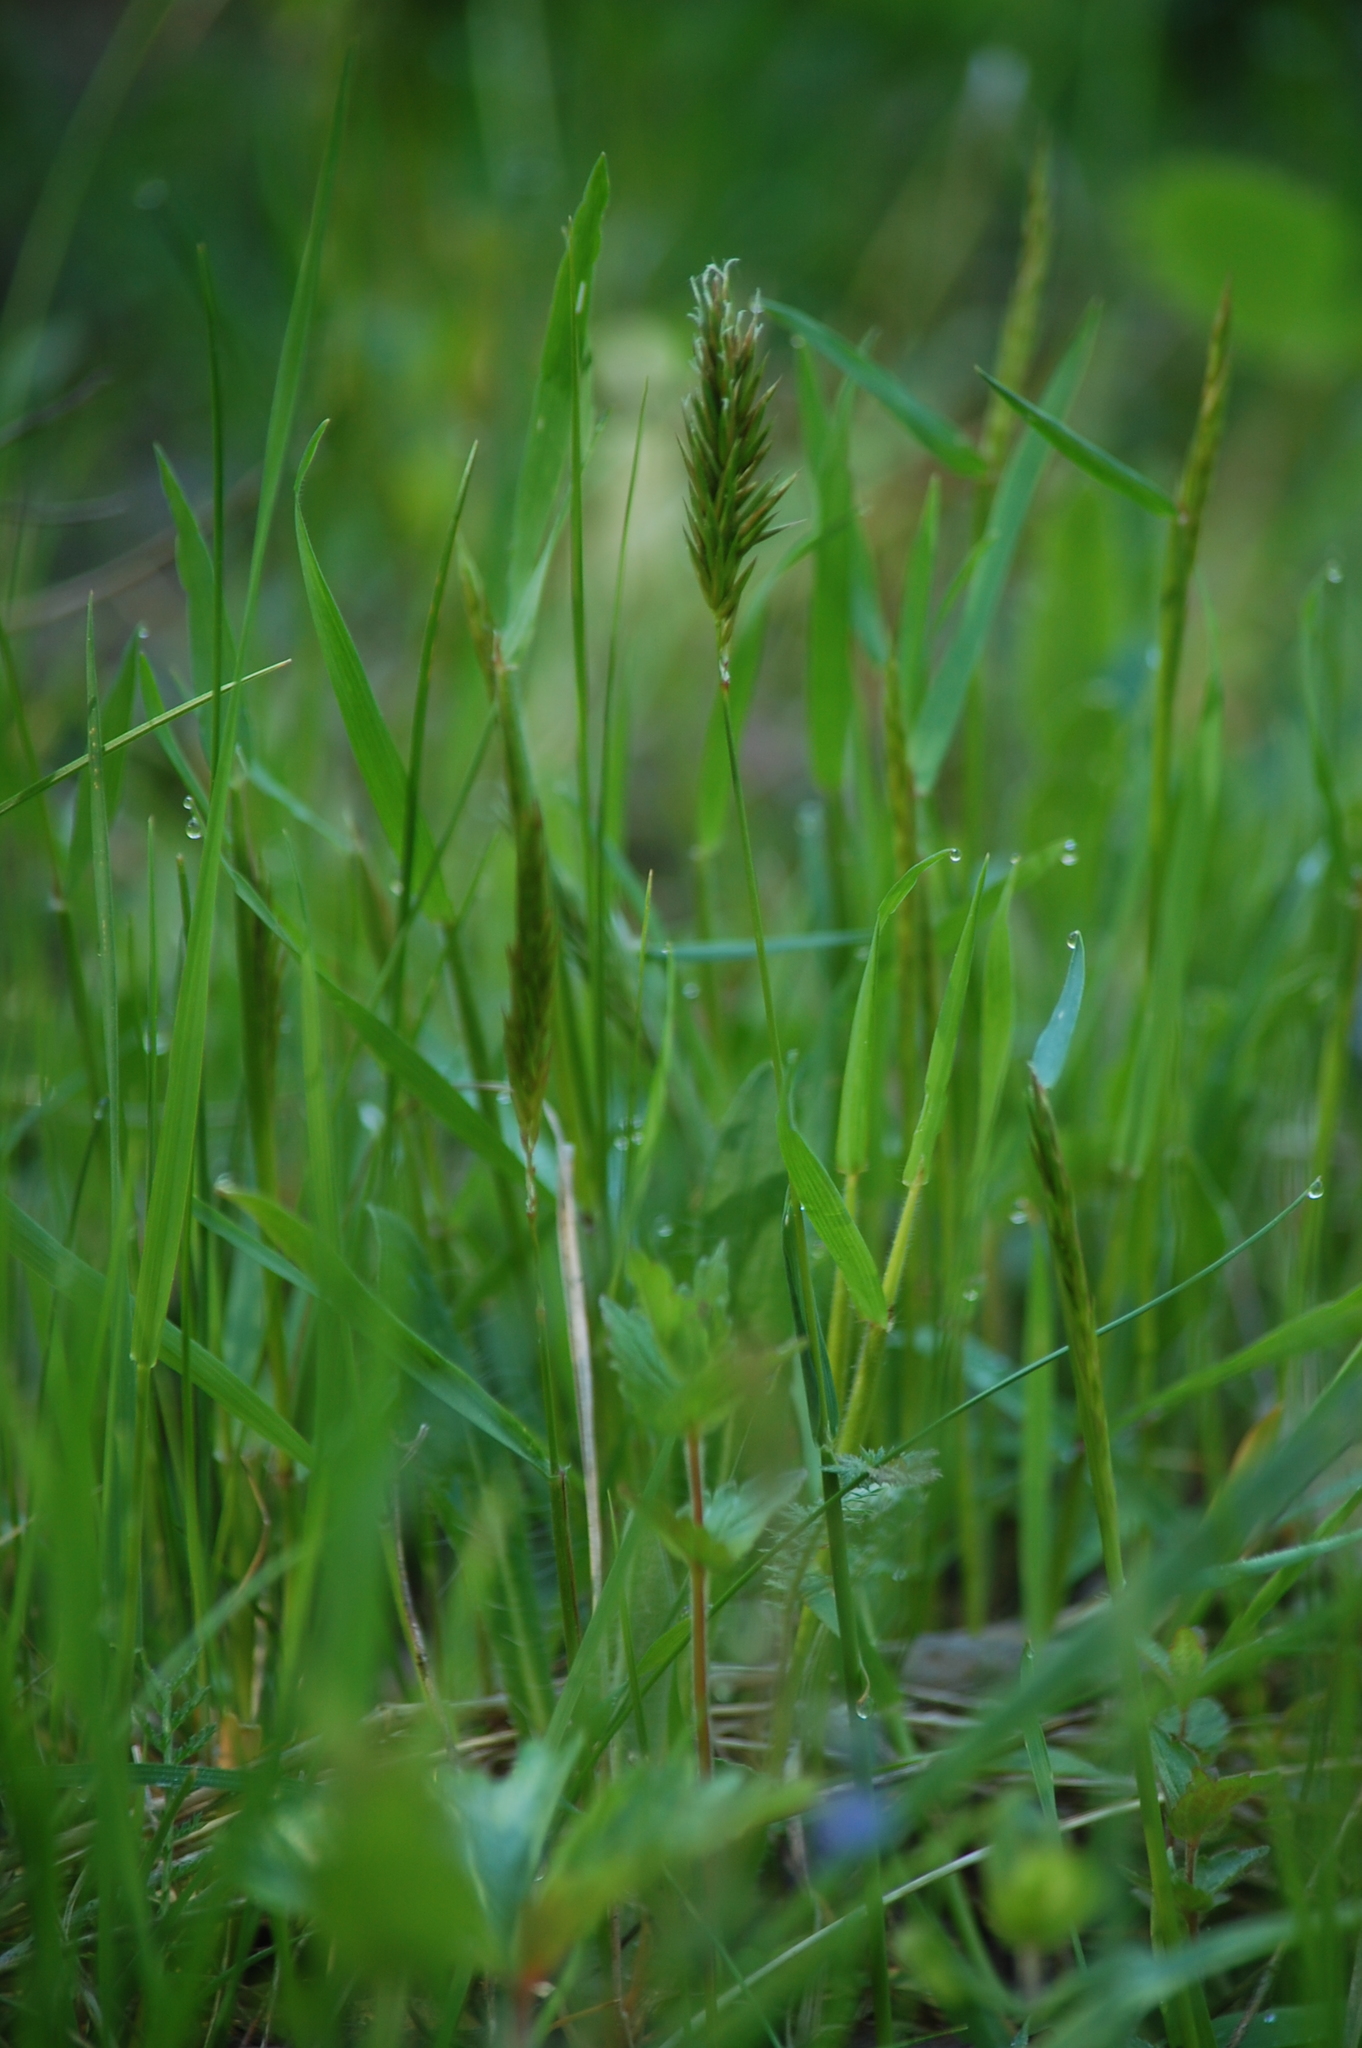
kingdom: Plantae
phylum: Tracheophyta
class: Liliopsida
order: Poales
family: Poaceae
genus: Anthoxanthum
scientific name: Anthoxanthum odoratum
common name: Sweet vernalgrass
